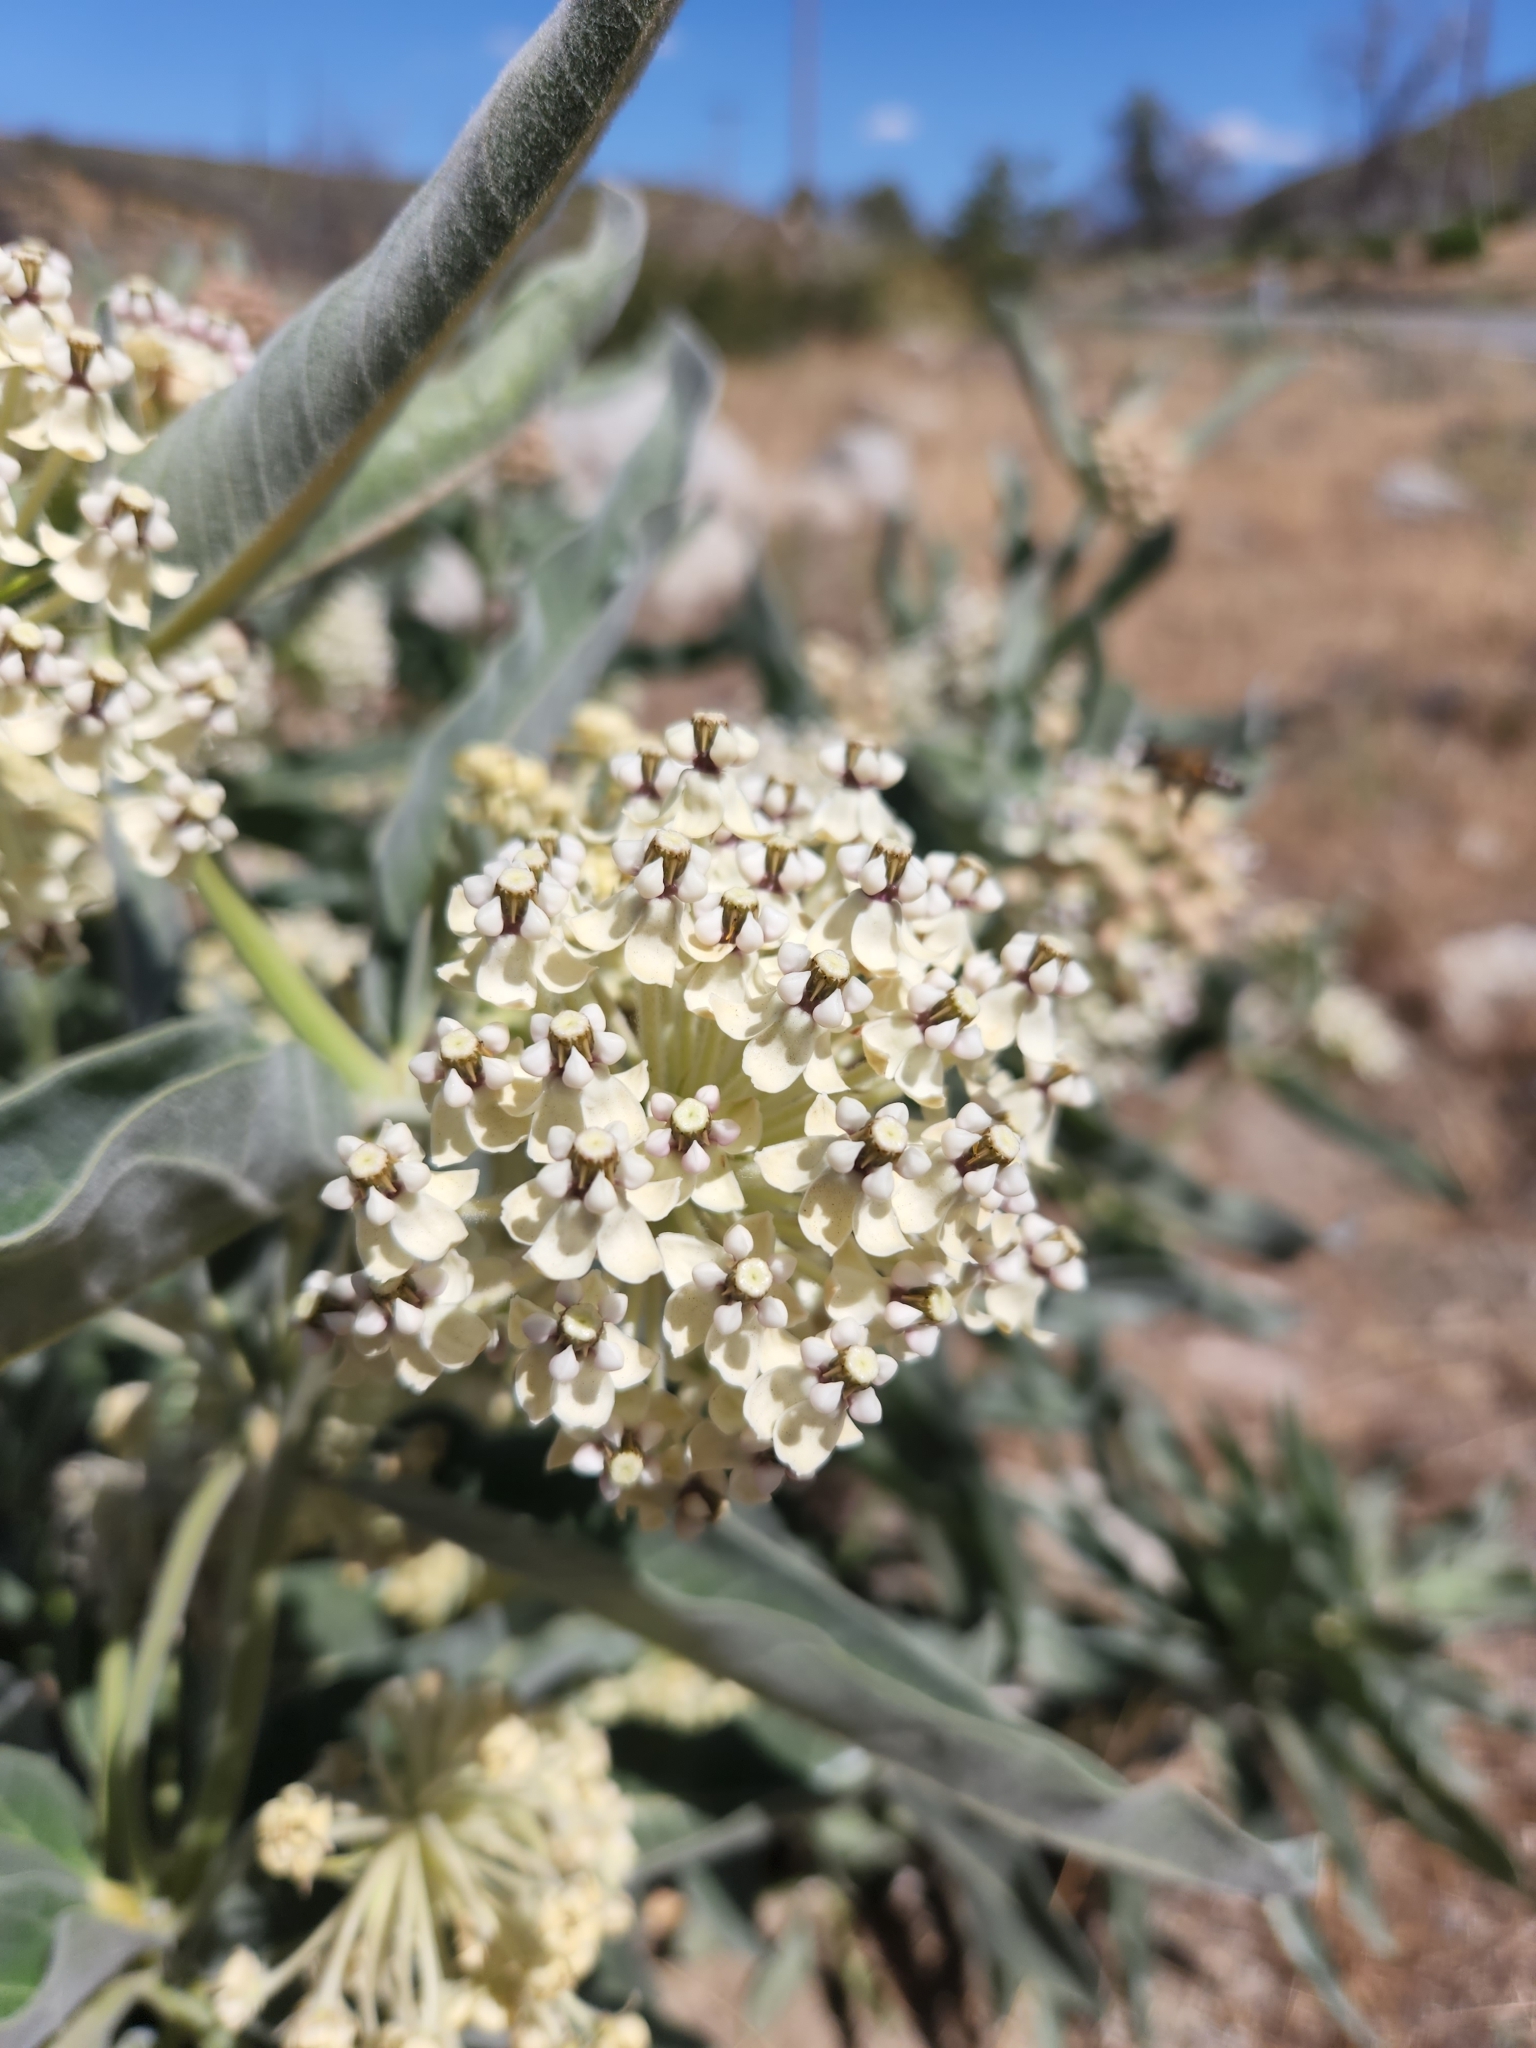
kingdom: Plantae
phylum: Tracheophyta
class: Magnoliopsida
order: Gentianales
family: Apocynaceae
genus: Asclepias
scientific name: Asclepias eriocarpa
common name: Indian milkweed
